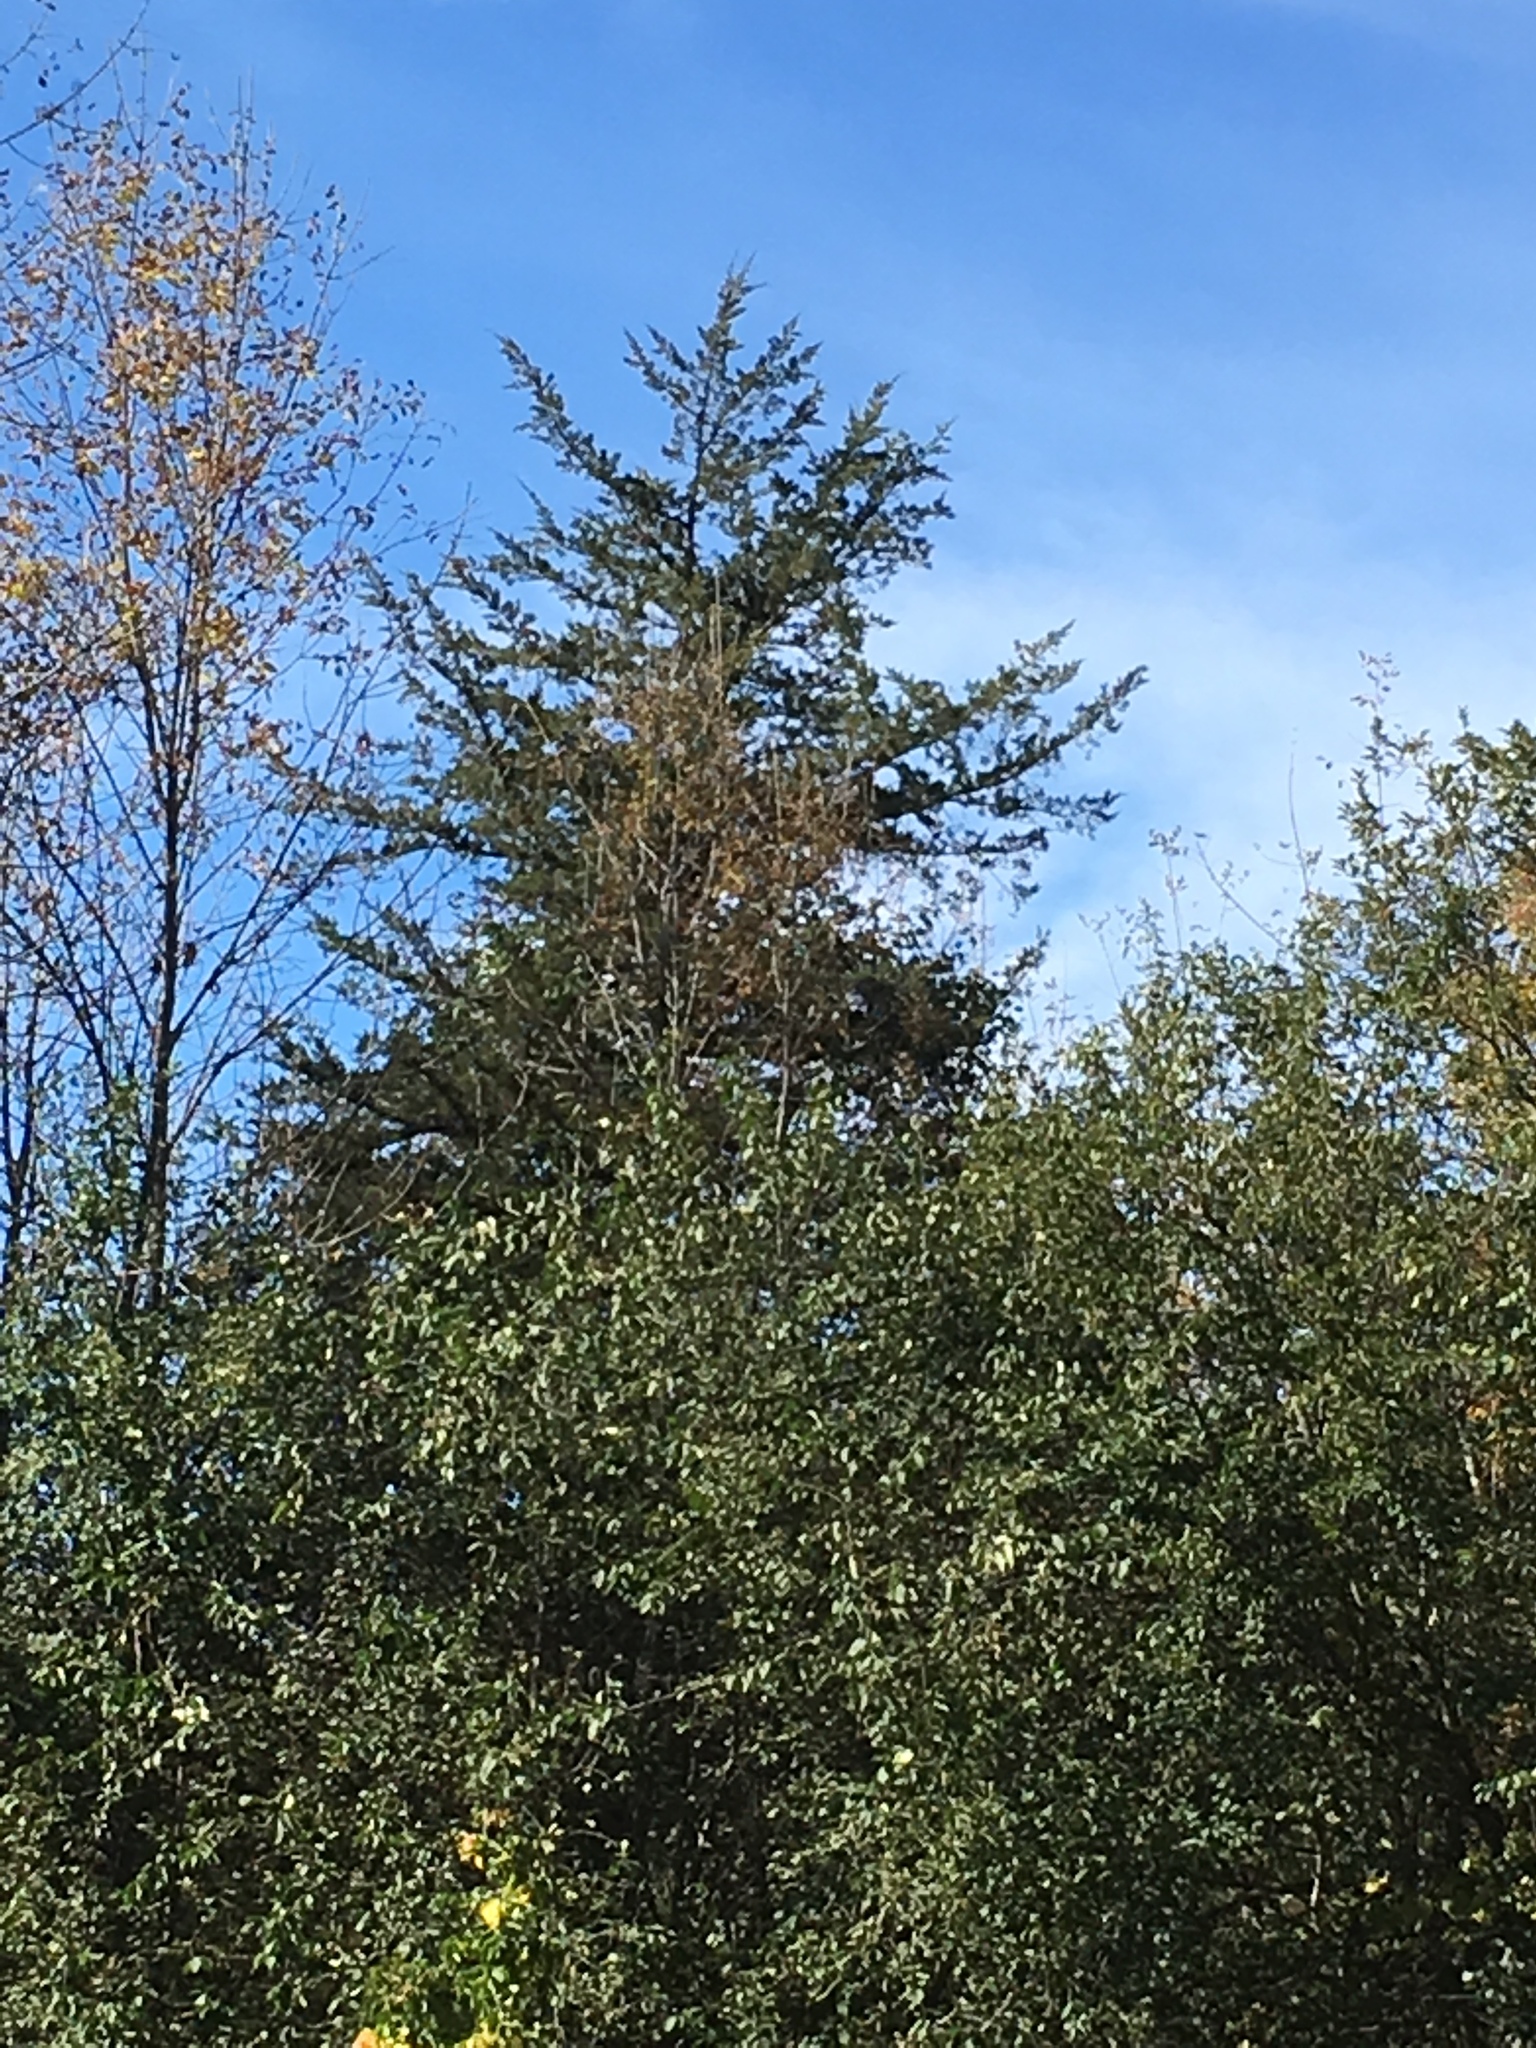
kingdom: Plantae
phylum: Tracheophyta
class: Pinopsida
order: Pinales
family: Cupressaceae
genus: Juniperus
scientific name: Juniperus virginiana
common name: Red juniper
